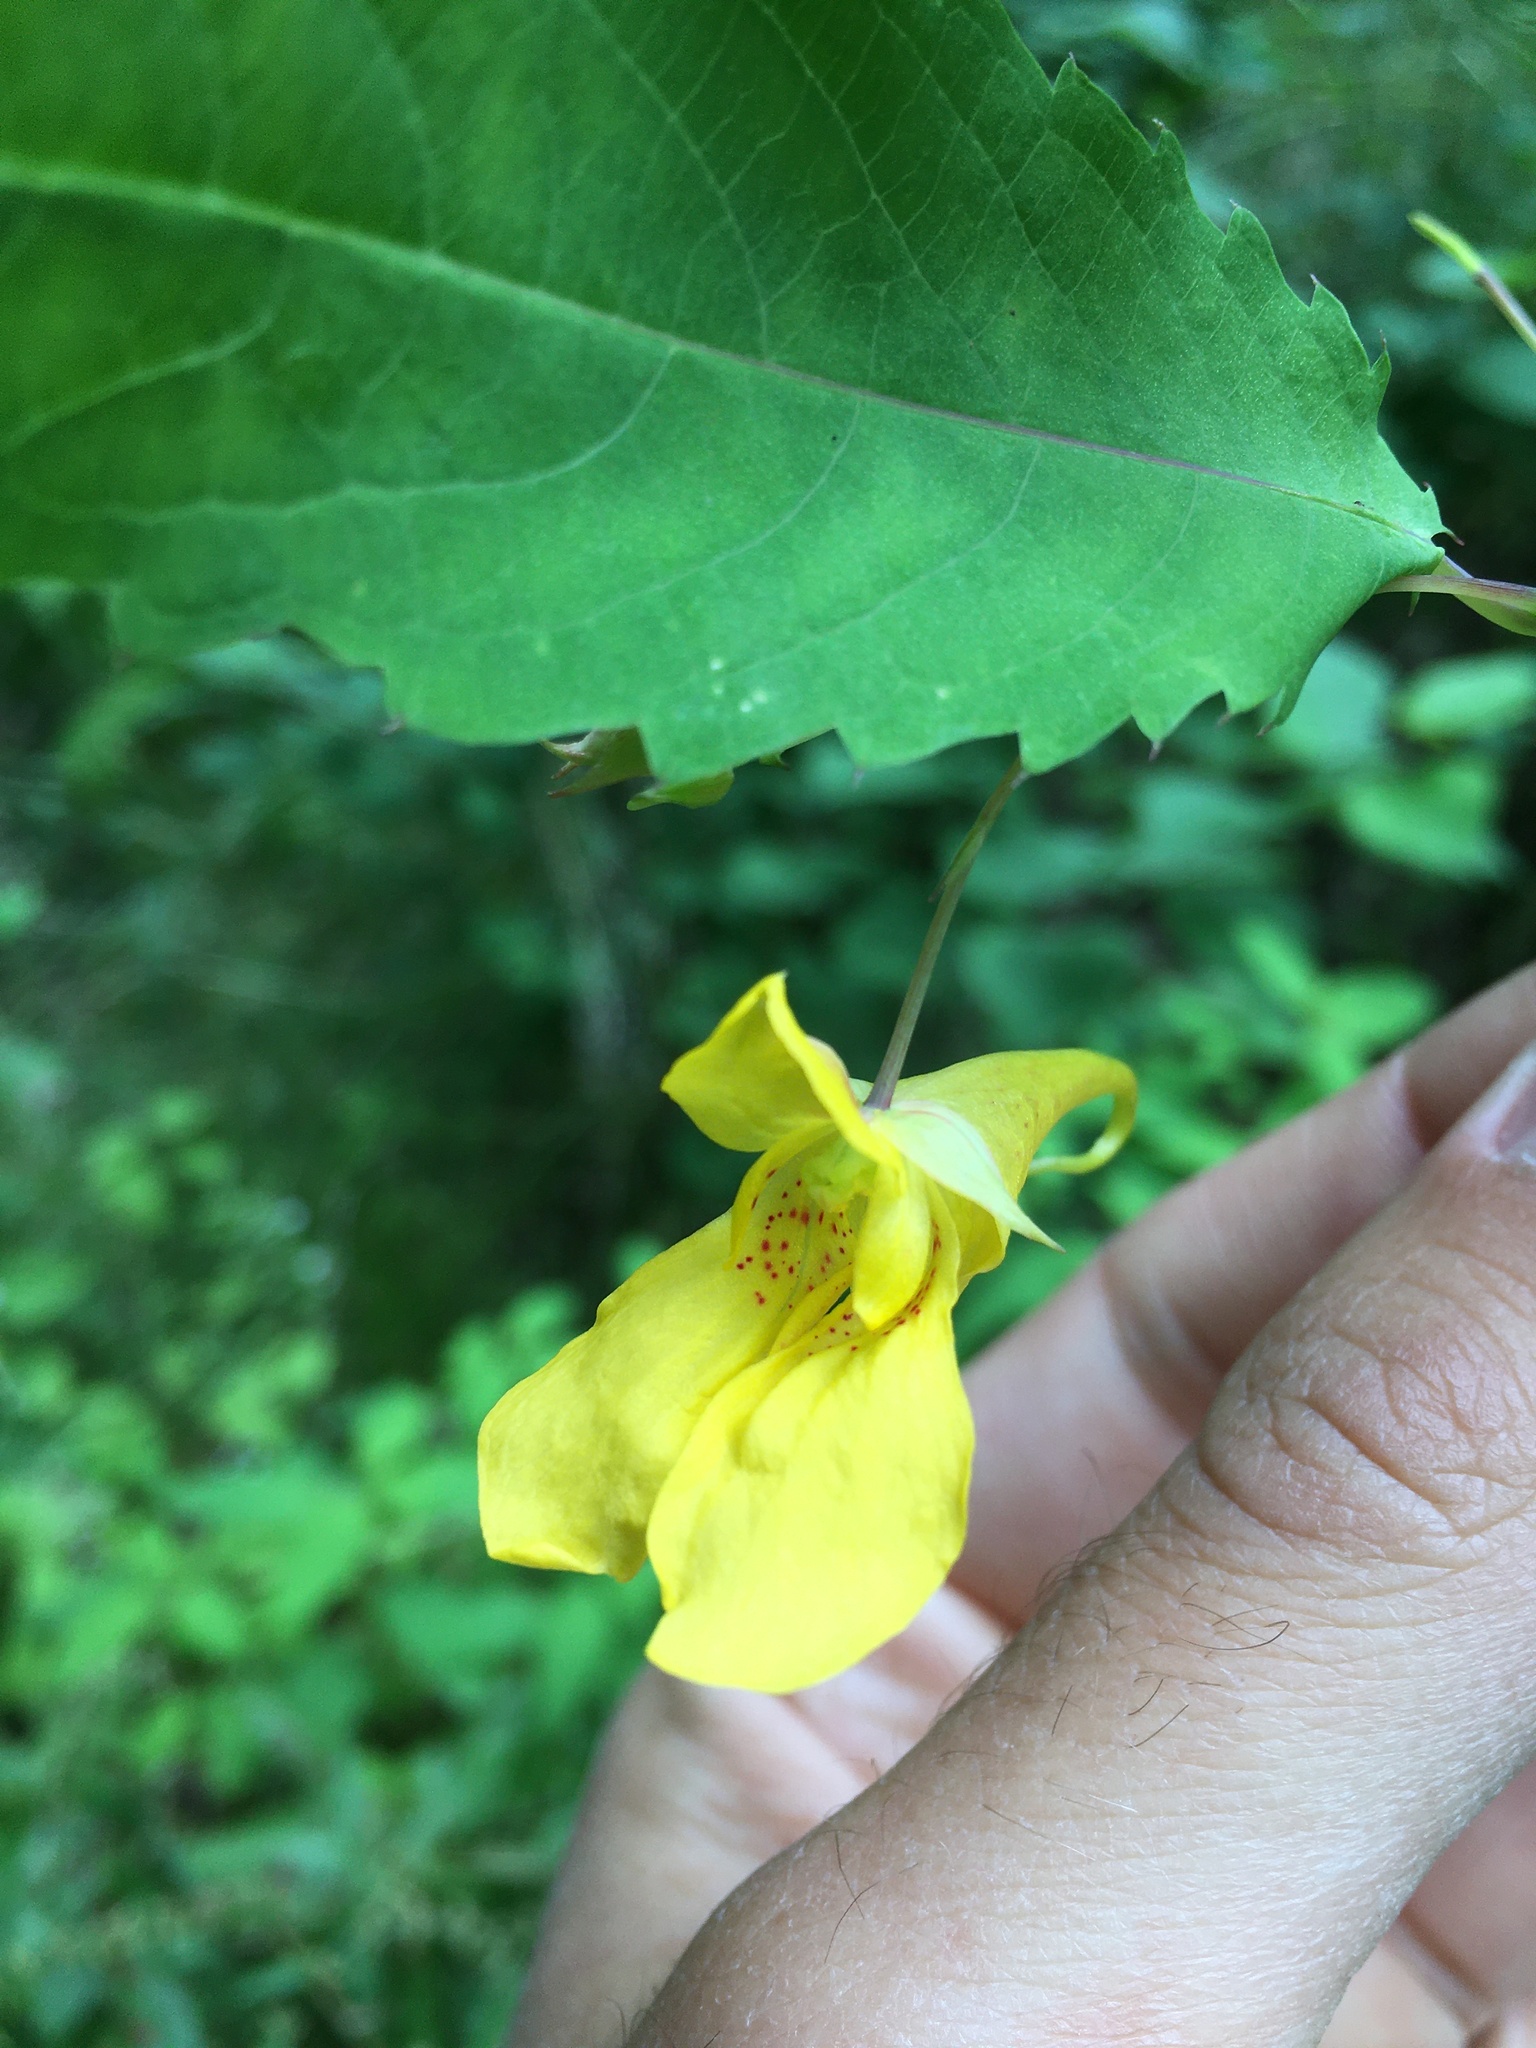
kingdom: Plantae
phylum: Tracheophyta
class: Magnoliopsida
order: Ericales
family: Balsaminaceae
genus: Impatiens
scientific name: Impatiens noli-tangere
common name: Touch-me-not balsam
